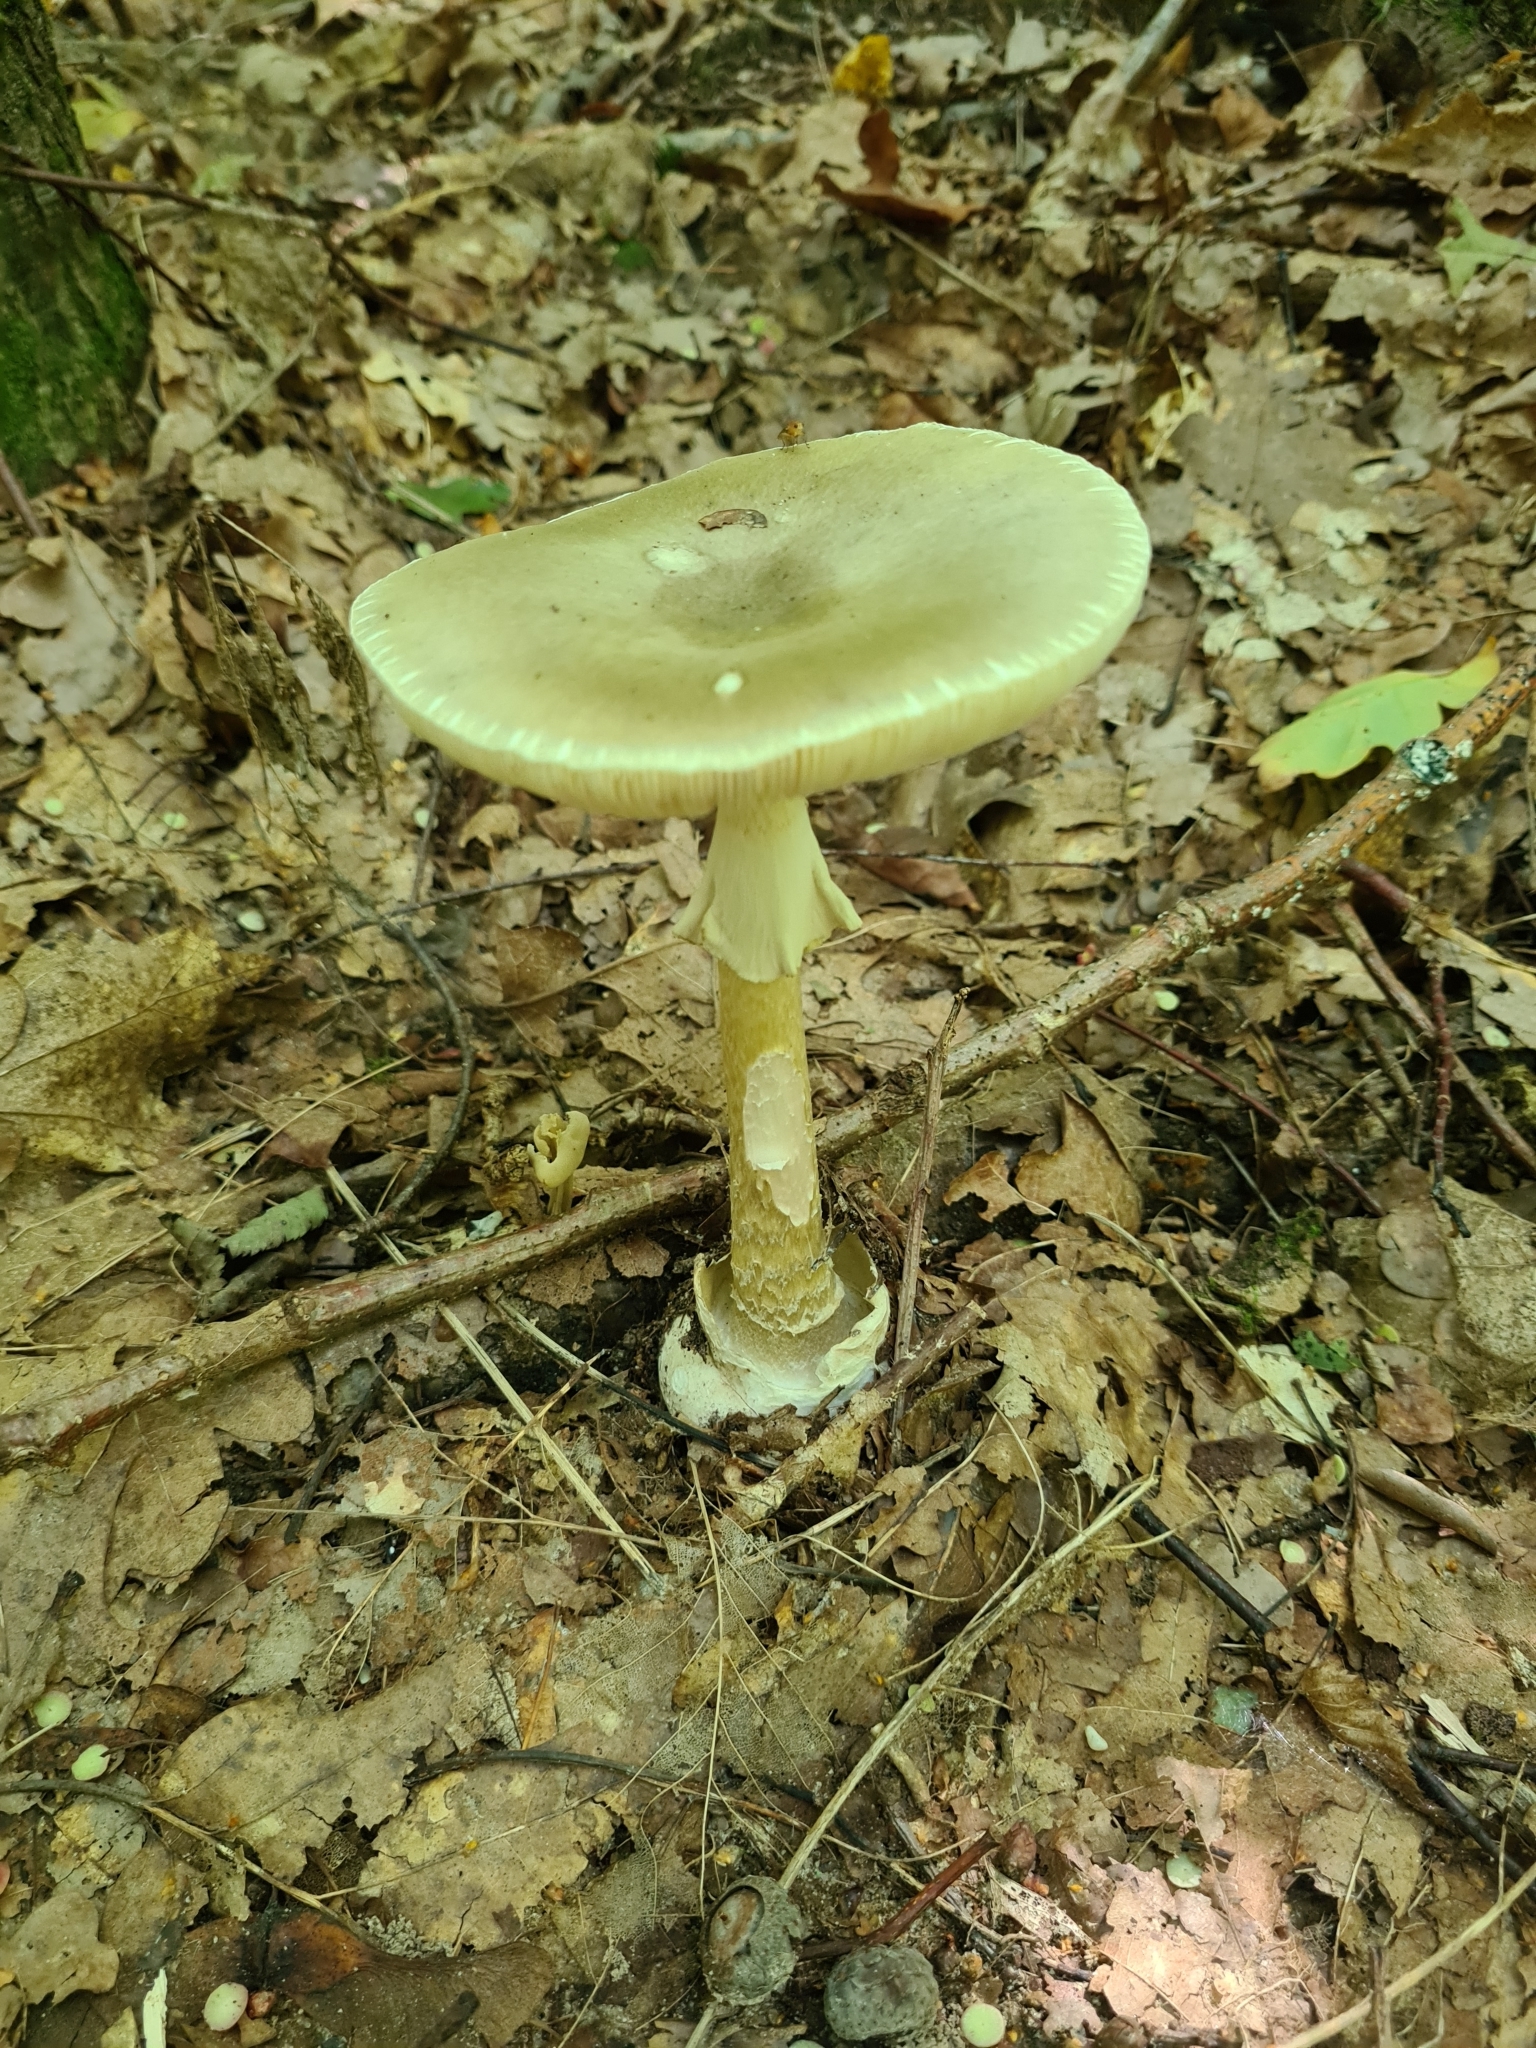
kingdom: Fungi
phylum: Basidiomycota
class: Agaricomycetes
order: Agaricales
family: Amanitaceae
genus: Amanita
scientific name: Amanita phalloides
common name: Death cap
